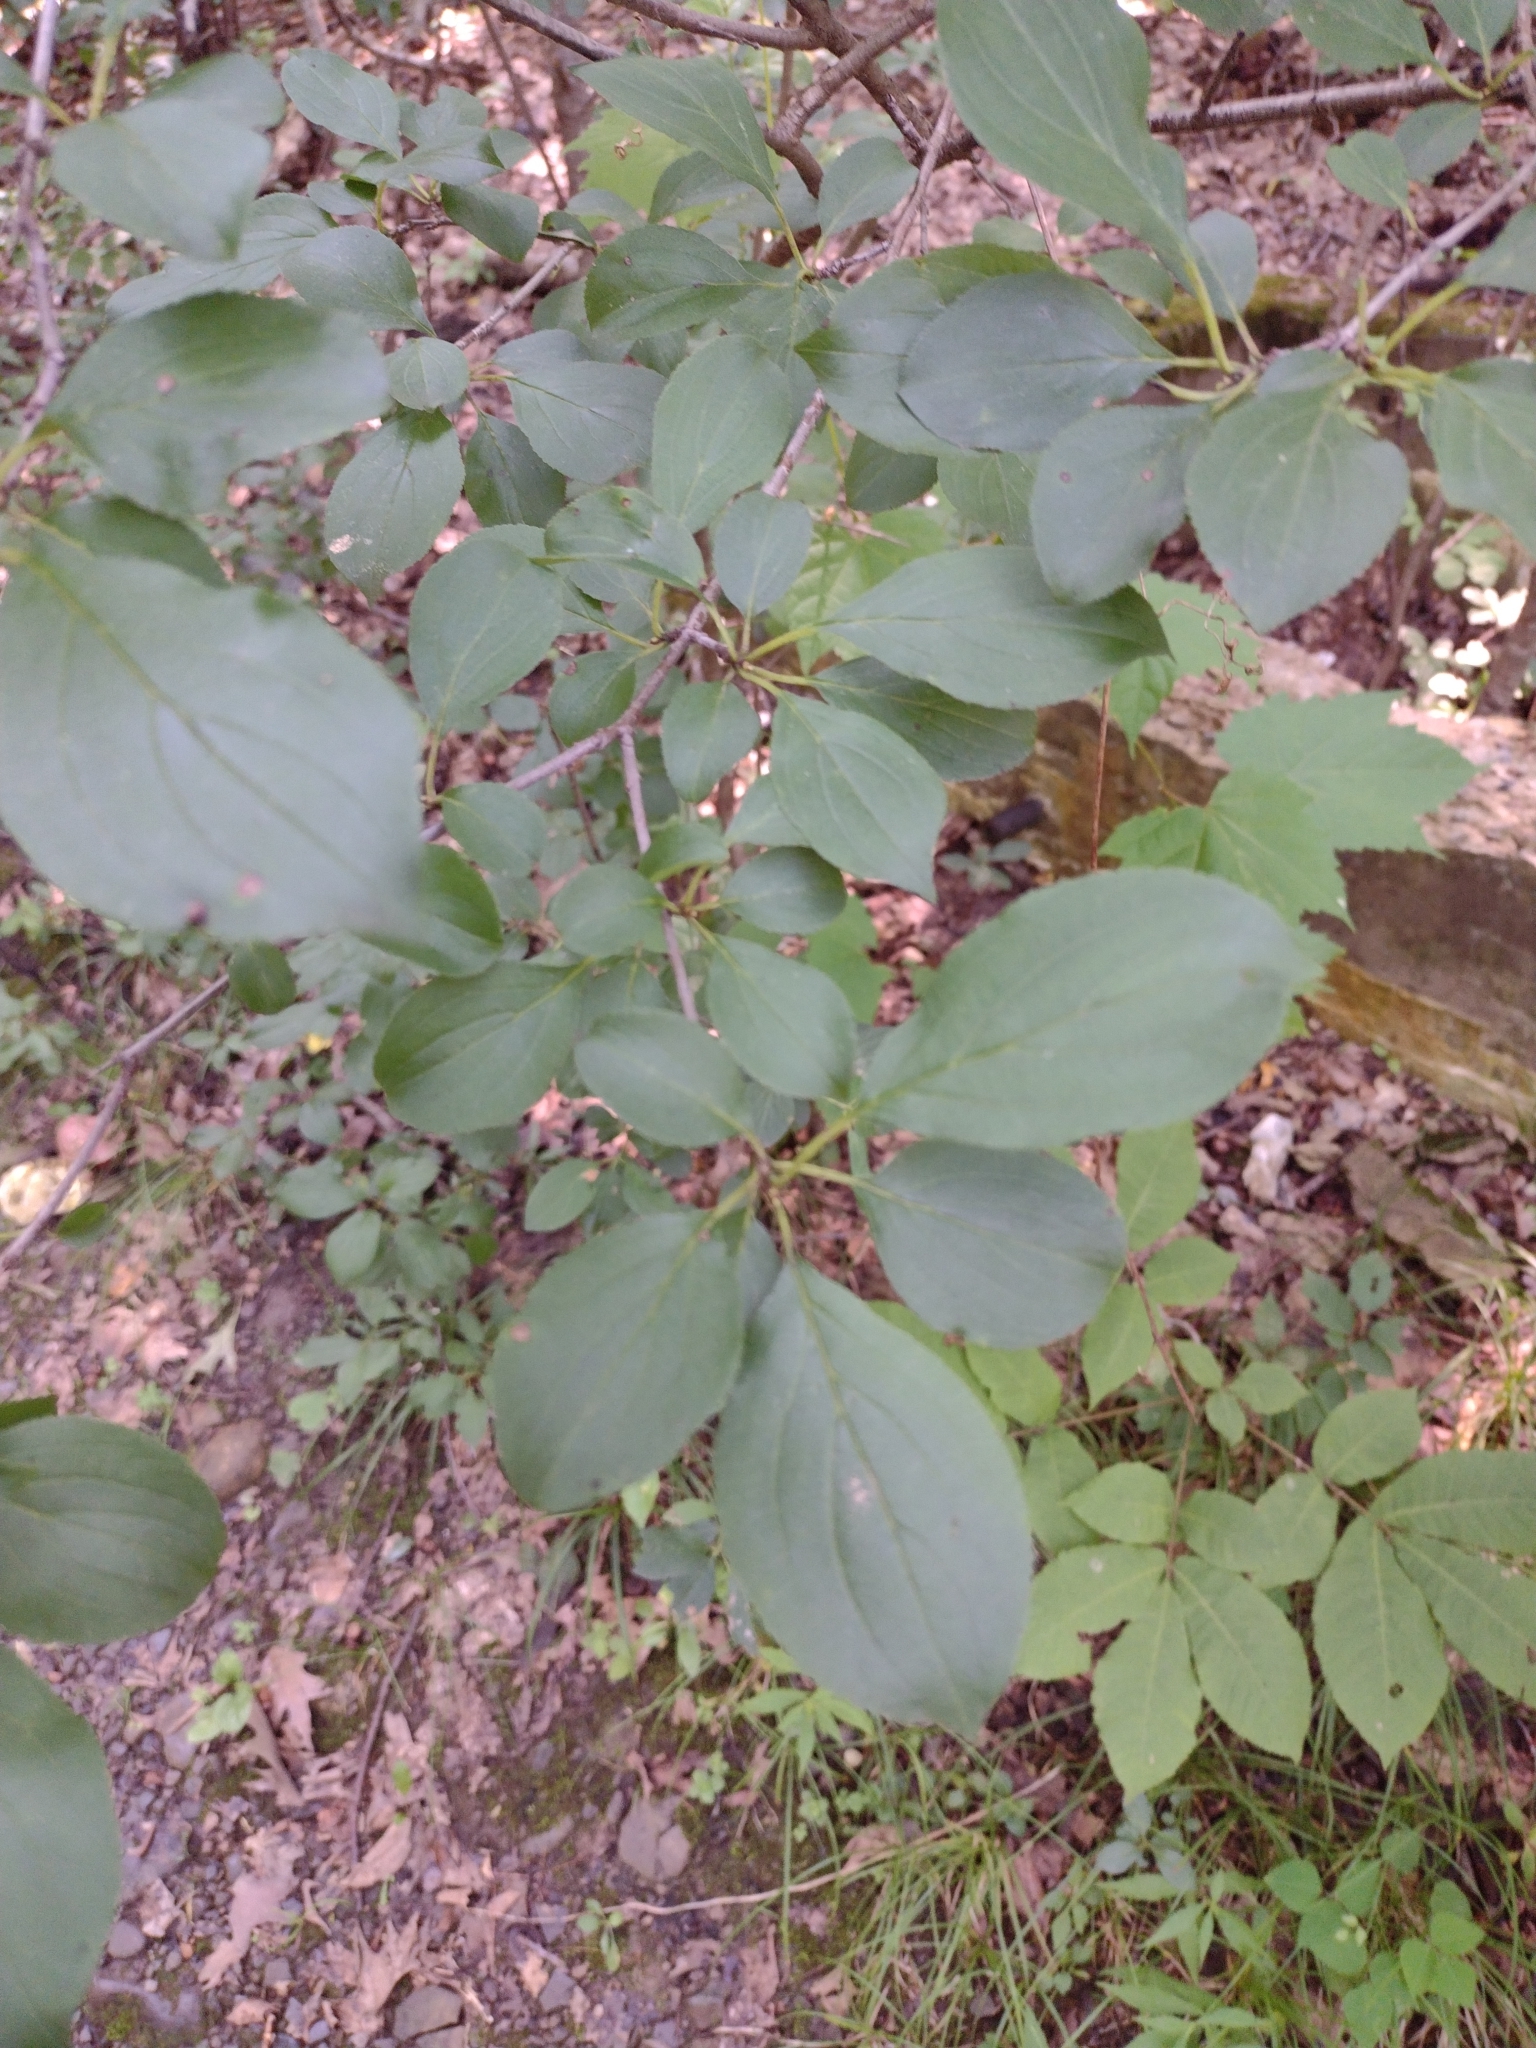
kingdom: Plantae
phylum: Tracheophyta
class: Magnoliopsida
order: Rosales
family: Rhamnaceae
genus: Rhamnus
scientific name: Rhamnus cathartica
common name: Common buckthorn
